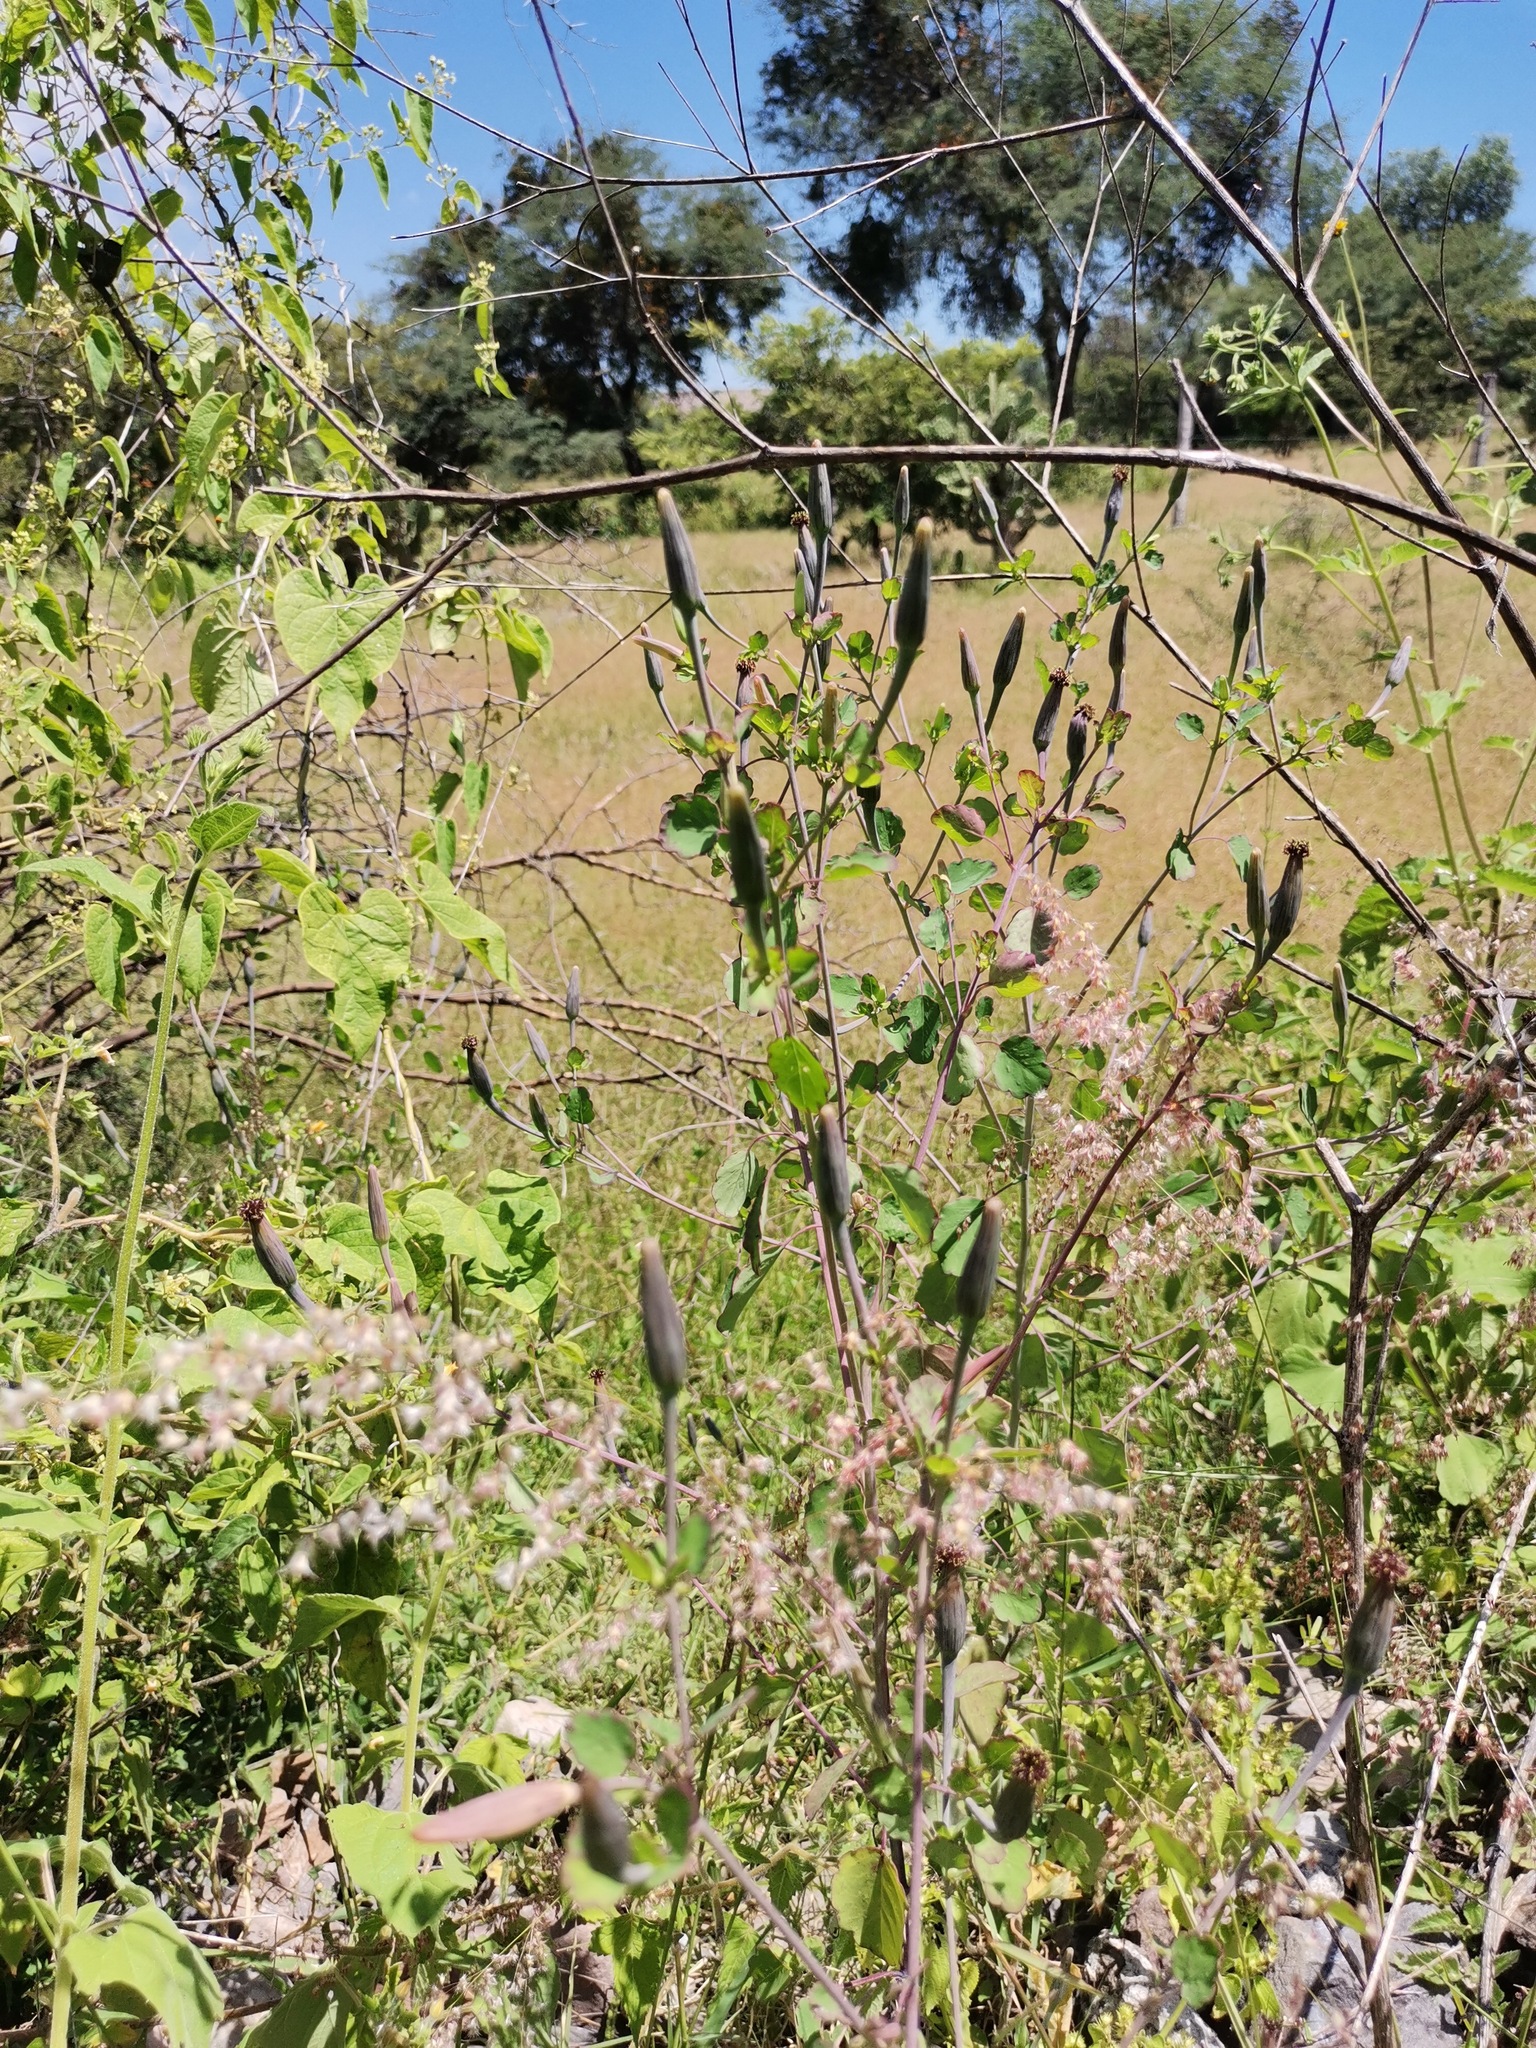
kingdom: Plantae
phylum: Tracheophyta
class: Magnoliopsida
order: Asterales
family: Asteraceae
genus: Porophyllum
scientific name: Porophyllum ruderale
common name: Yerba porosa
